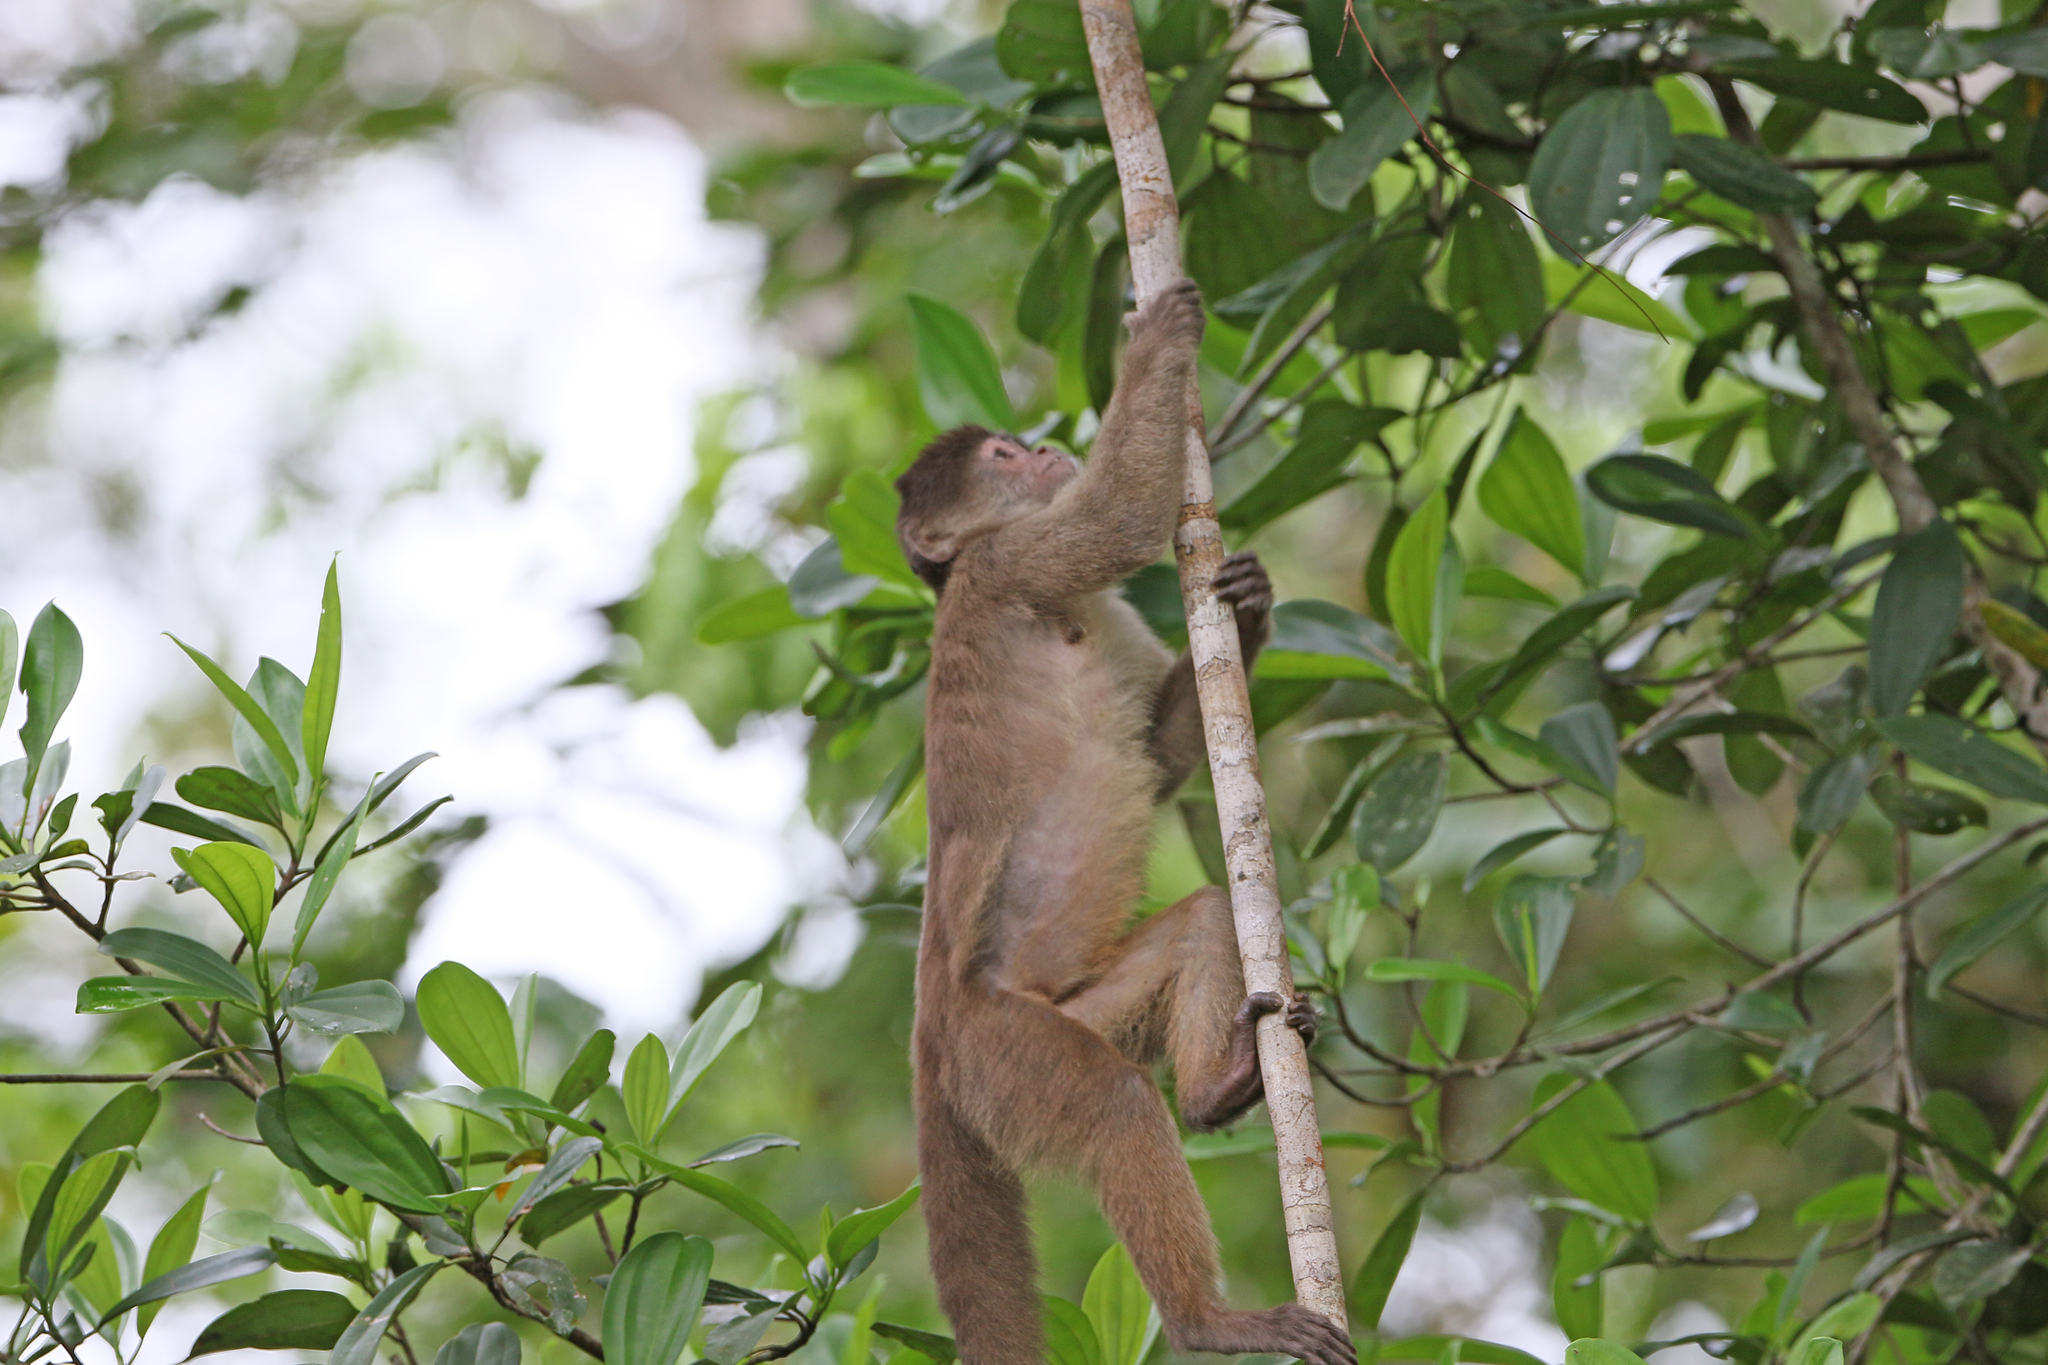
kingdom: Animalia
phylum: Chordata
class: Mammalia
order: Primates
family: Cebidae
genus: Cebus
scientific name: Cebus yuracus
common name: Peruvian white-fronted capuchin
